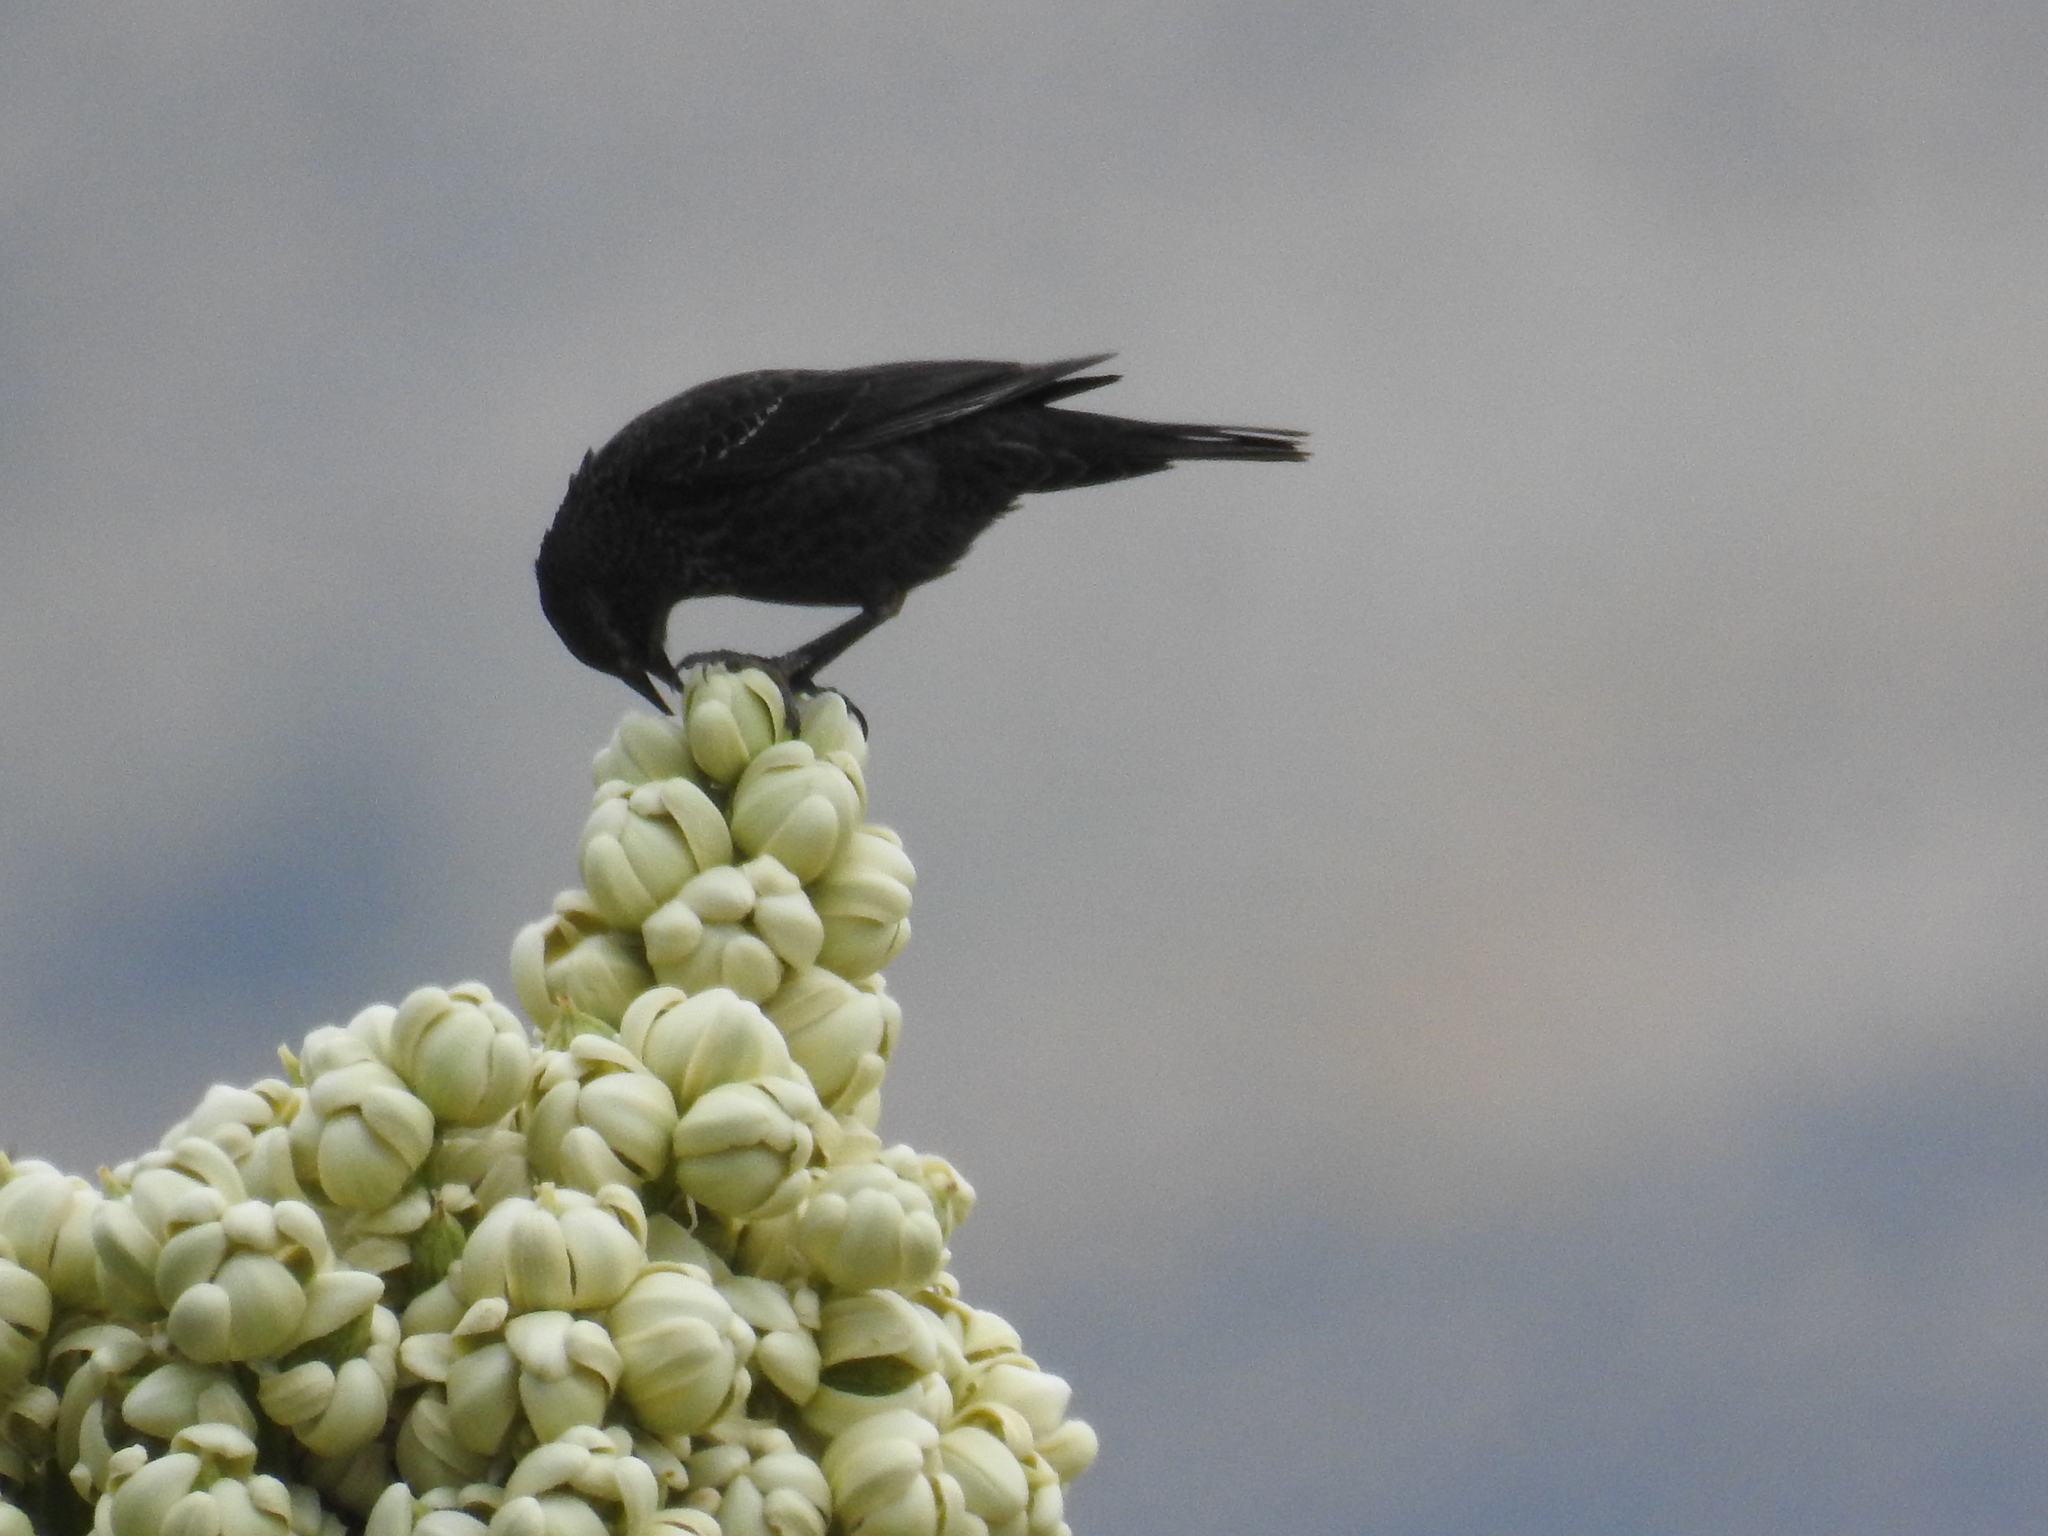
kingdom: Animalia
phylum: Chordata
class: Aves
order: Passeriformes
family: Icteridae
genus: Agelaius
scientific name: Agelaius tricolor
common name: Tricolored blackbird
